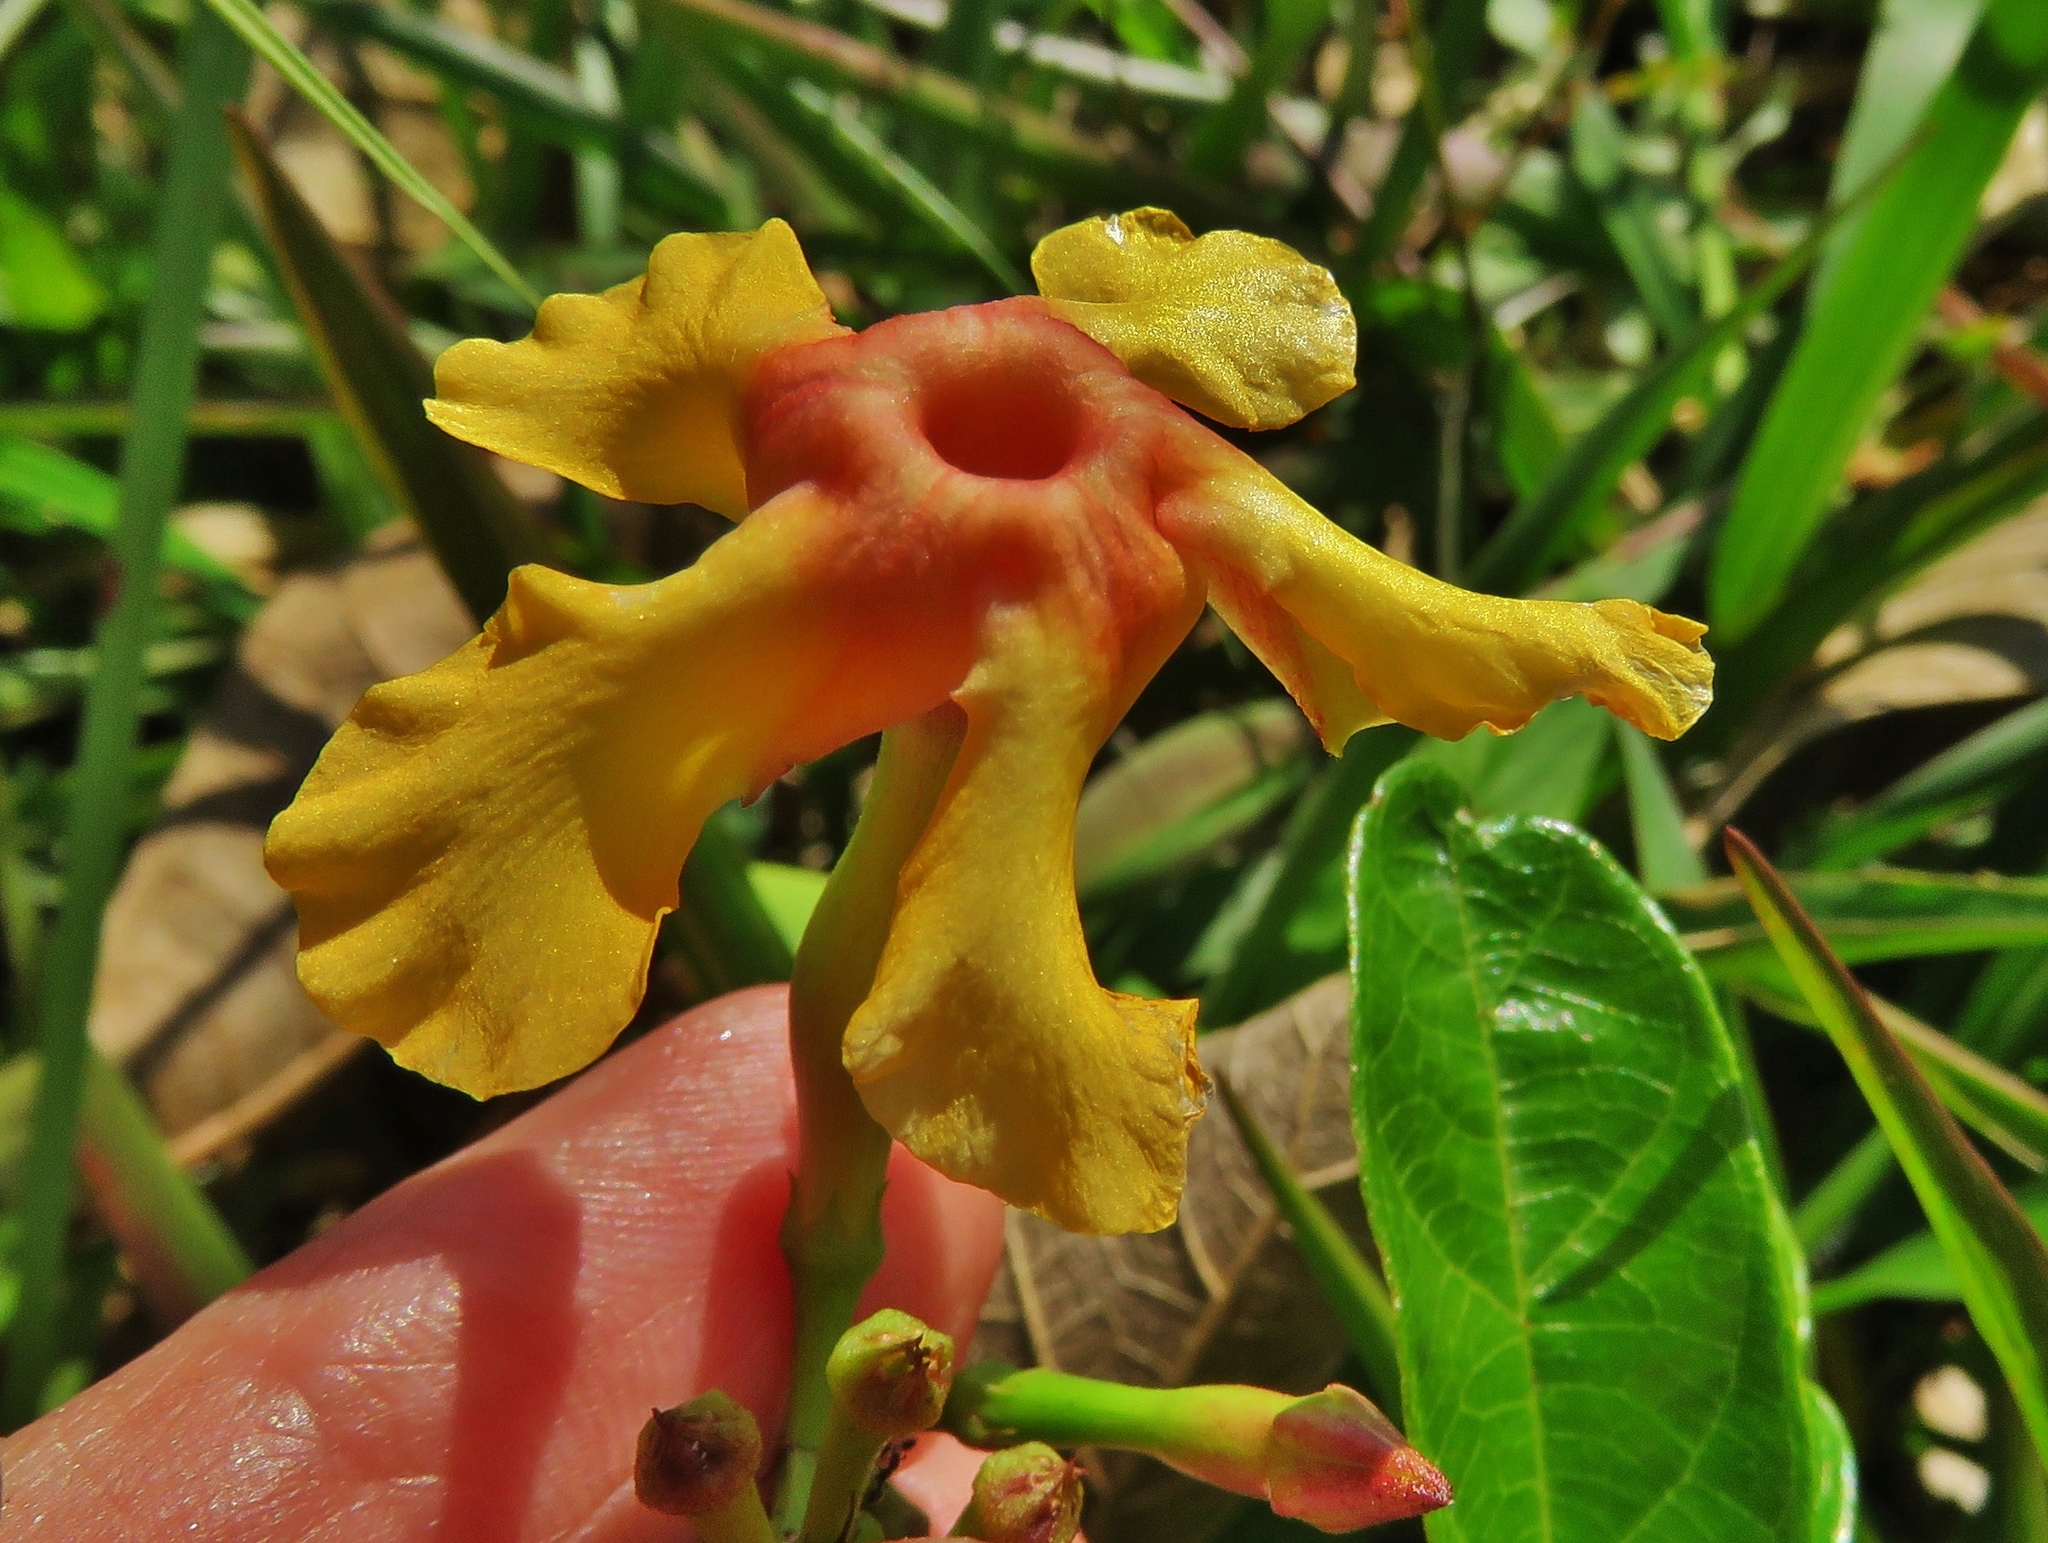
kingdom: Plantae
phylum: Tracheophyta
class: Magnoliopsida
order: Gentianales
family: Apocynaceae
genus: Mandevilla
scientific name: Mandevilla subsagittata
